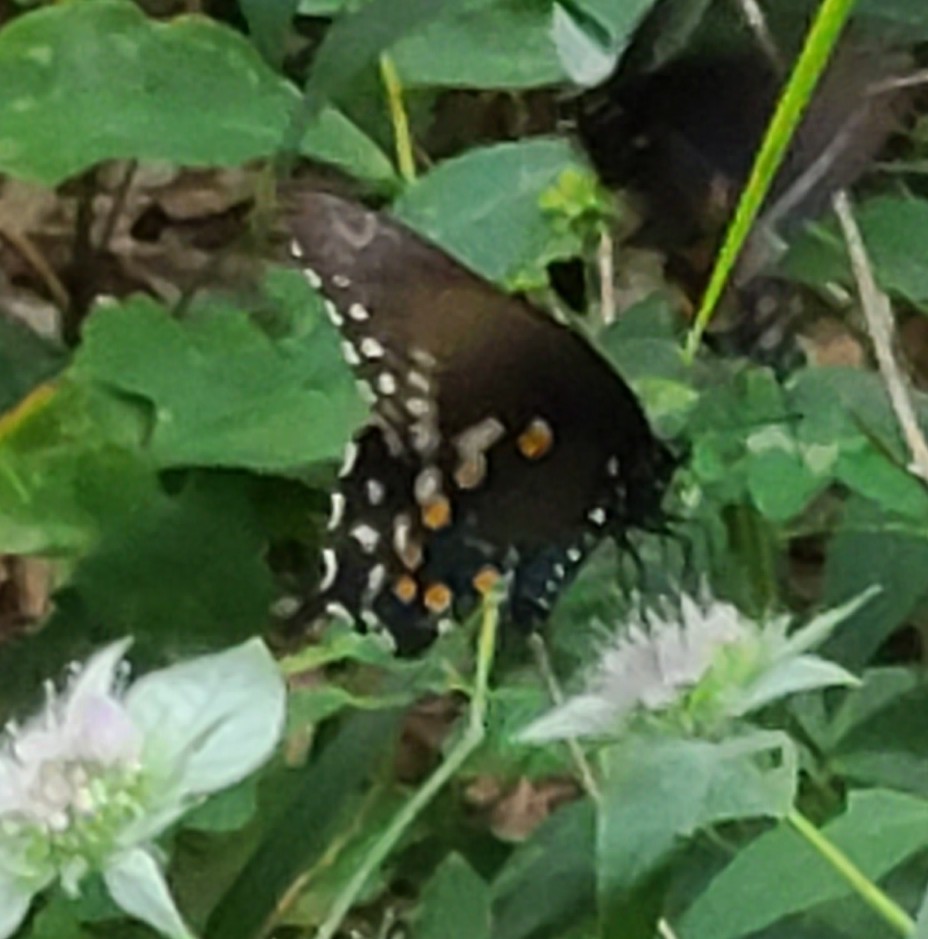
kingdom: Animalia
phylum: Arthropoda
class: Insecta
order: Lepidoptera
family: Papilionidae
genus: Battus
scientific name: Battus philenor
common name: Pipevine swallowtail
